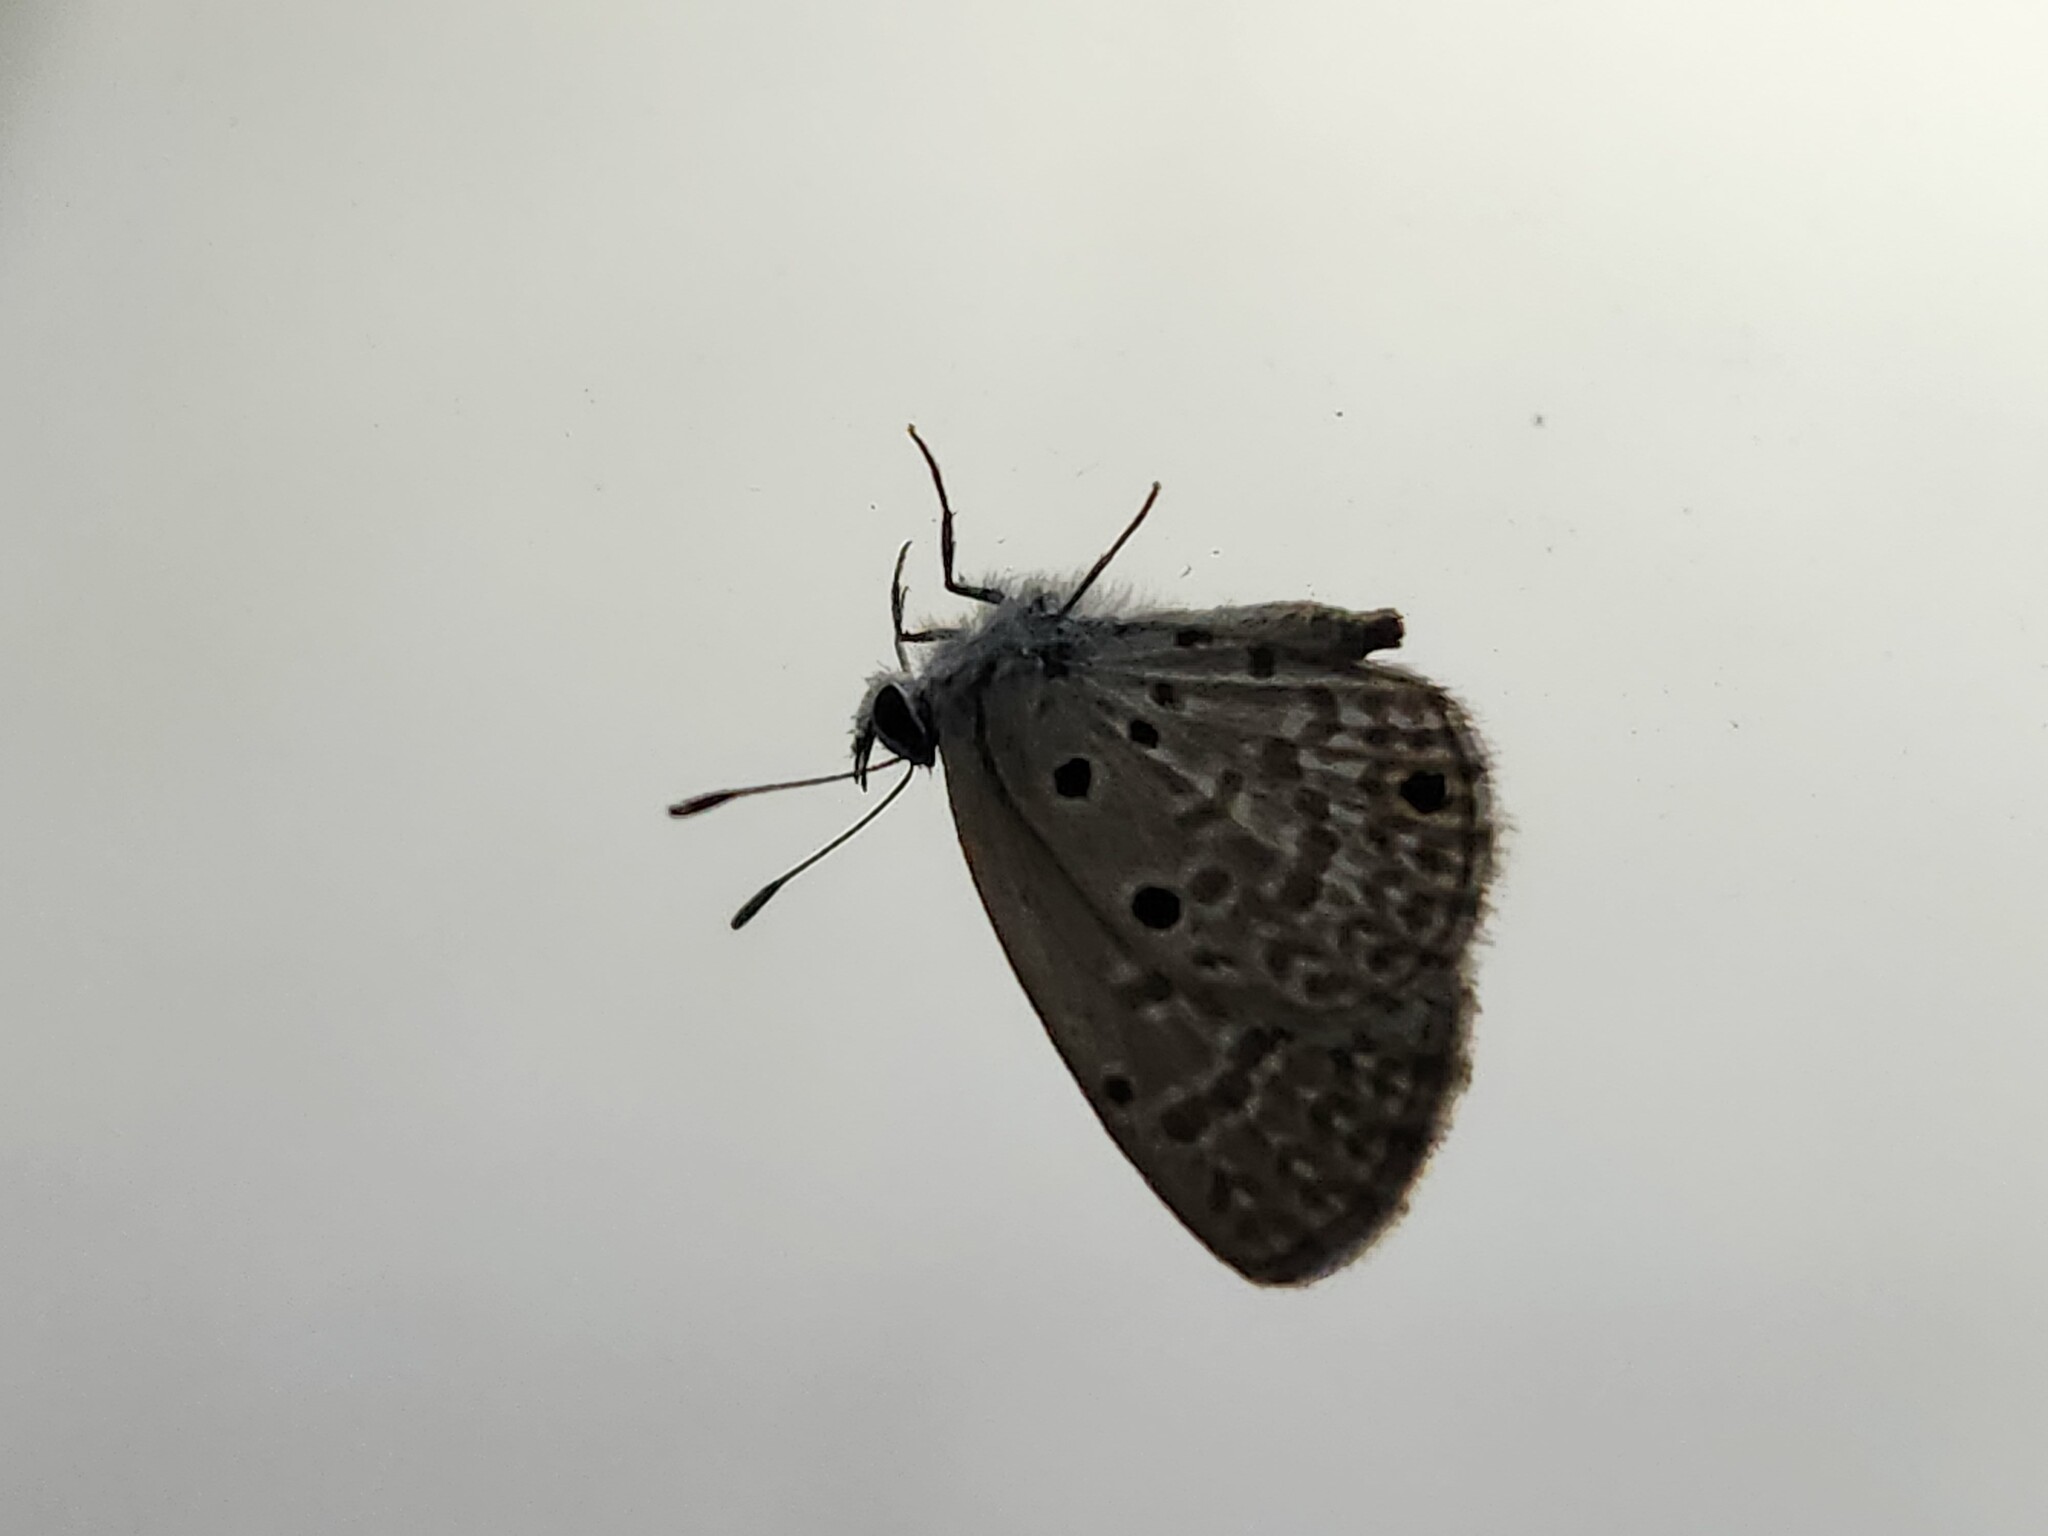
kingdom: Animalia
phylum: Arthropoda
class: Insecta
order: Lepidoptera
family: Lycaenidae
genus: Hemiargus
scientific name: Hemiargus hanno
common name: Common blue
